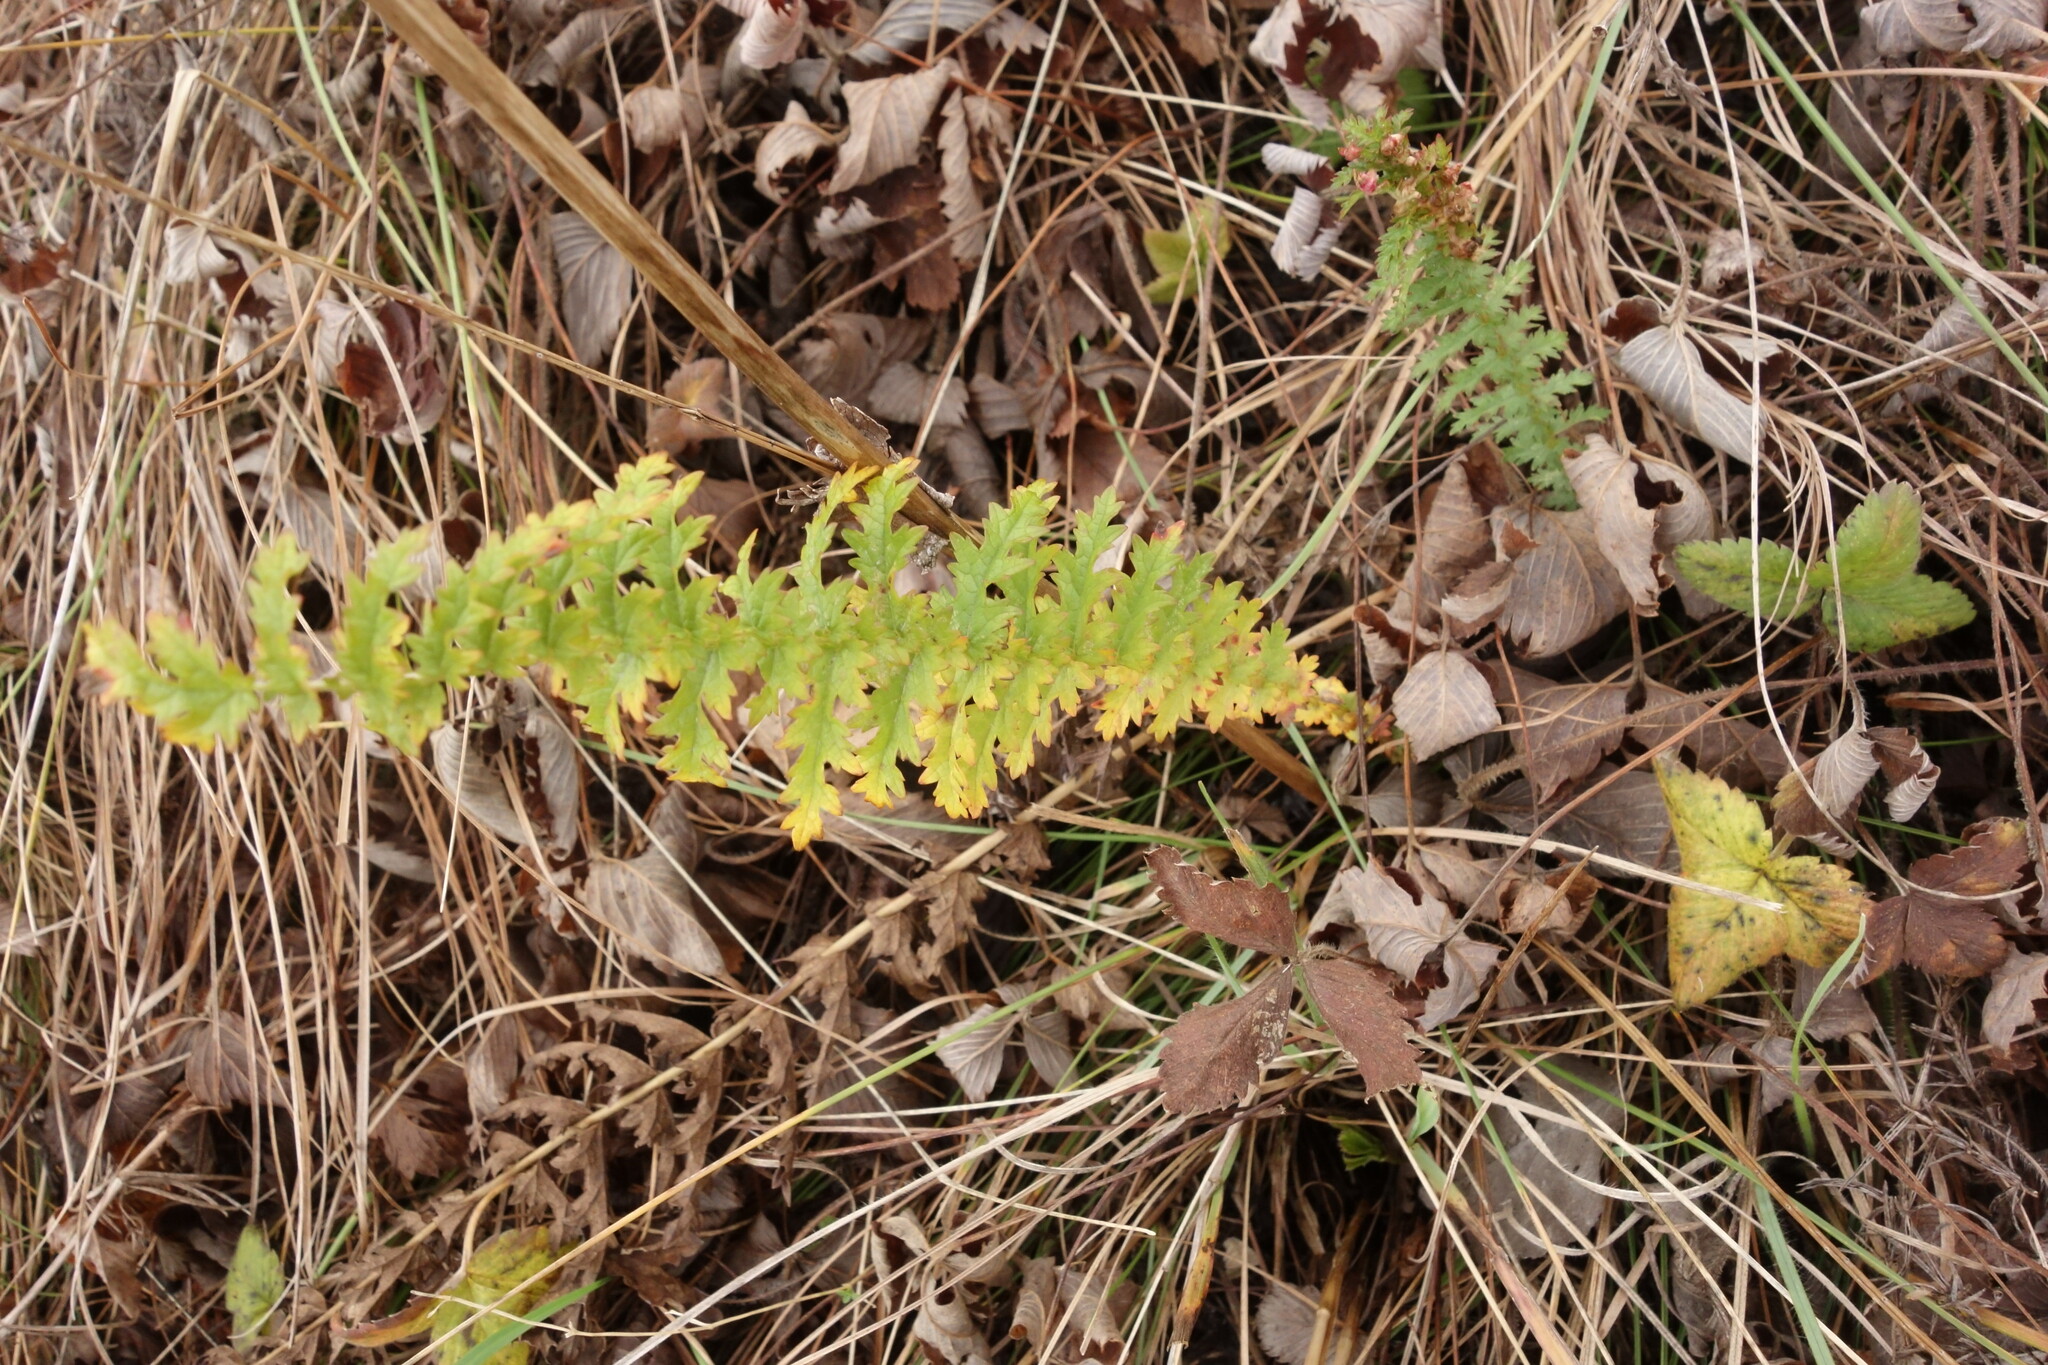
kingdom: Plantae
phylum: Tracheophyta
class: Magnoliopsida
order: Rosales
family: Rosaceae
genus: Filipendula
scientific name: Filipendula vulgaris
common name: Dropwort
